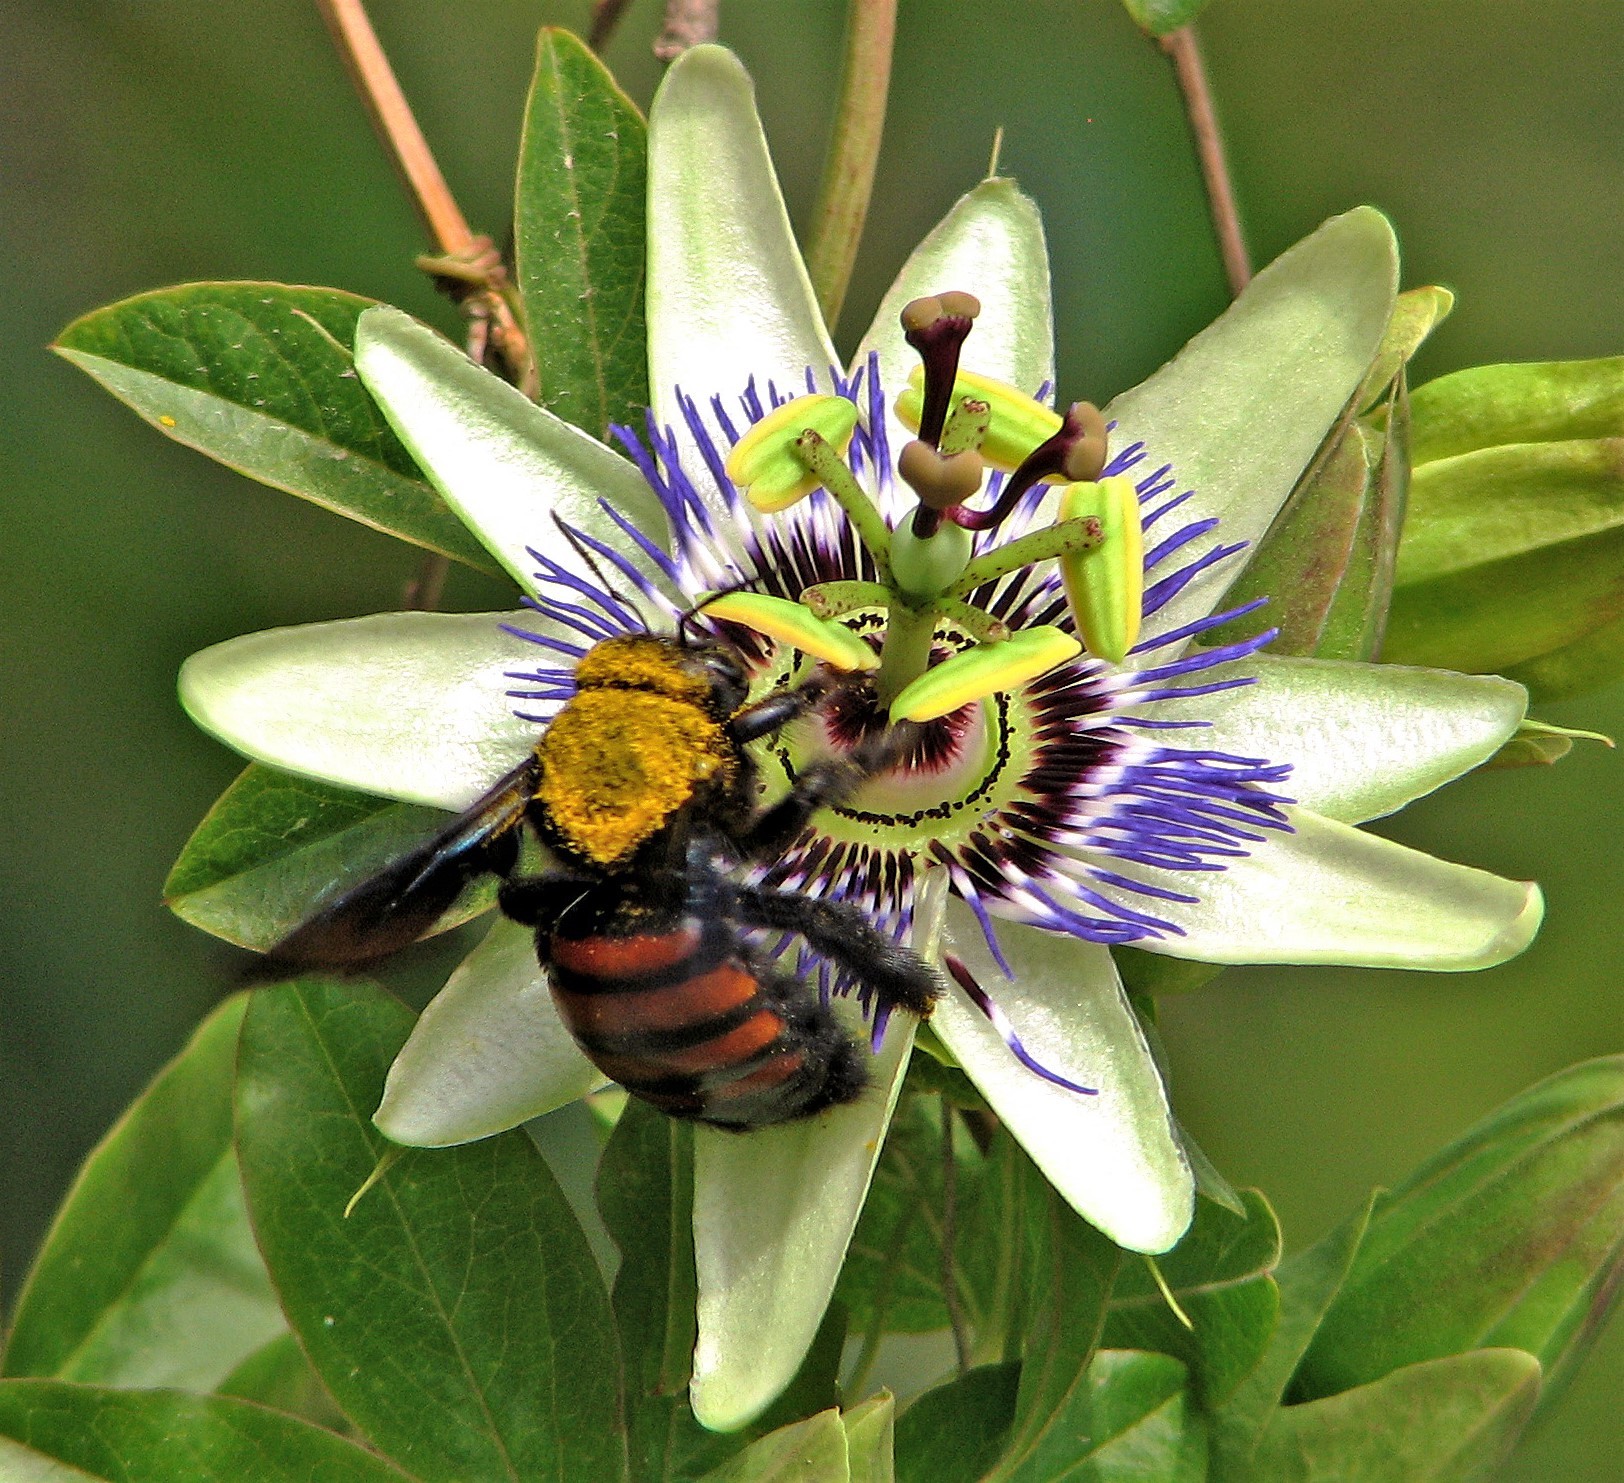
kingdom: Animalia
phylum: Arthropoda
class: Insecta
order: Hymenoptera
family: Apidae
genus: Xylocopa
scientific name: Xylocopa frontalis
